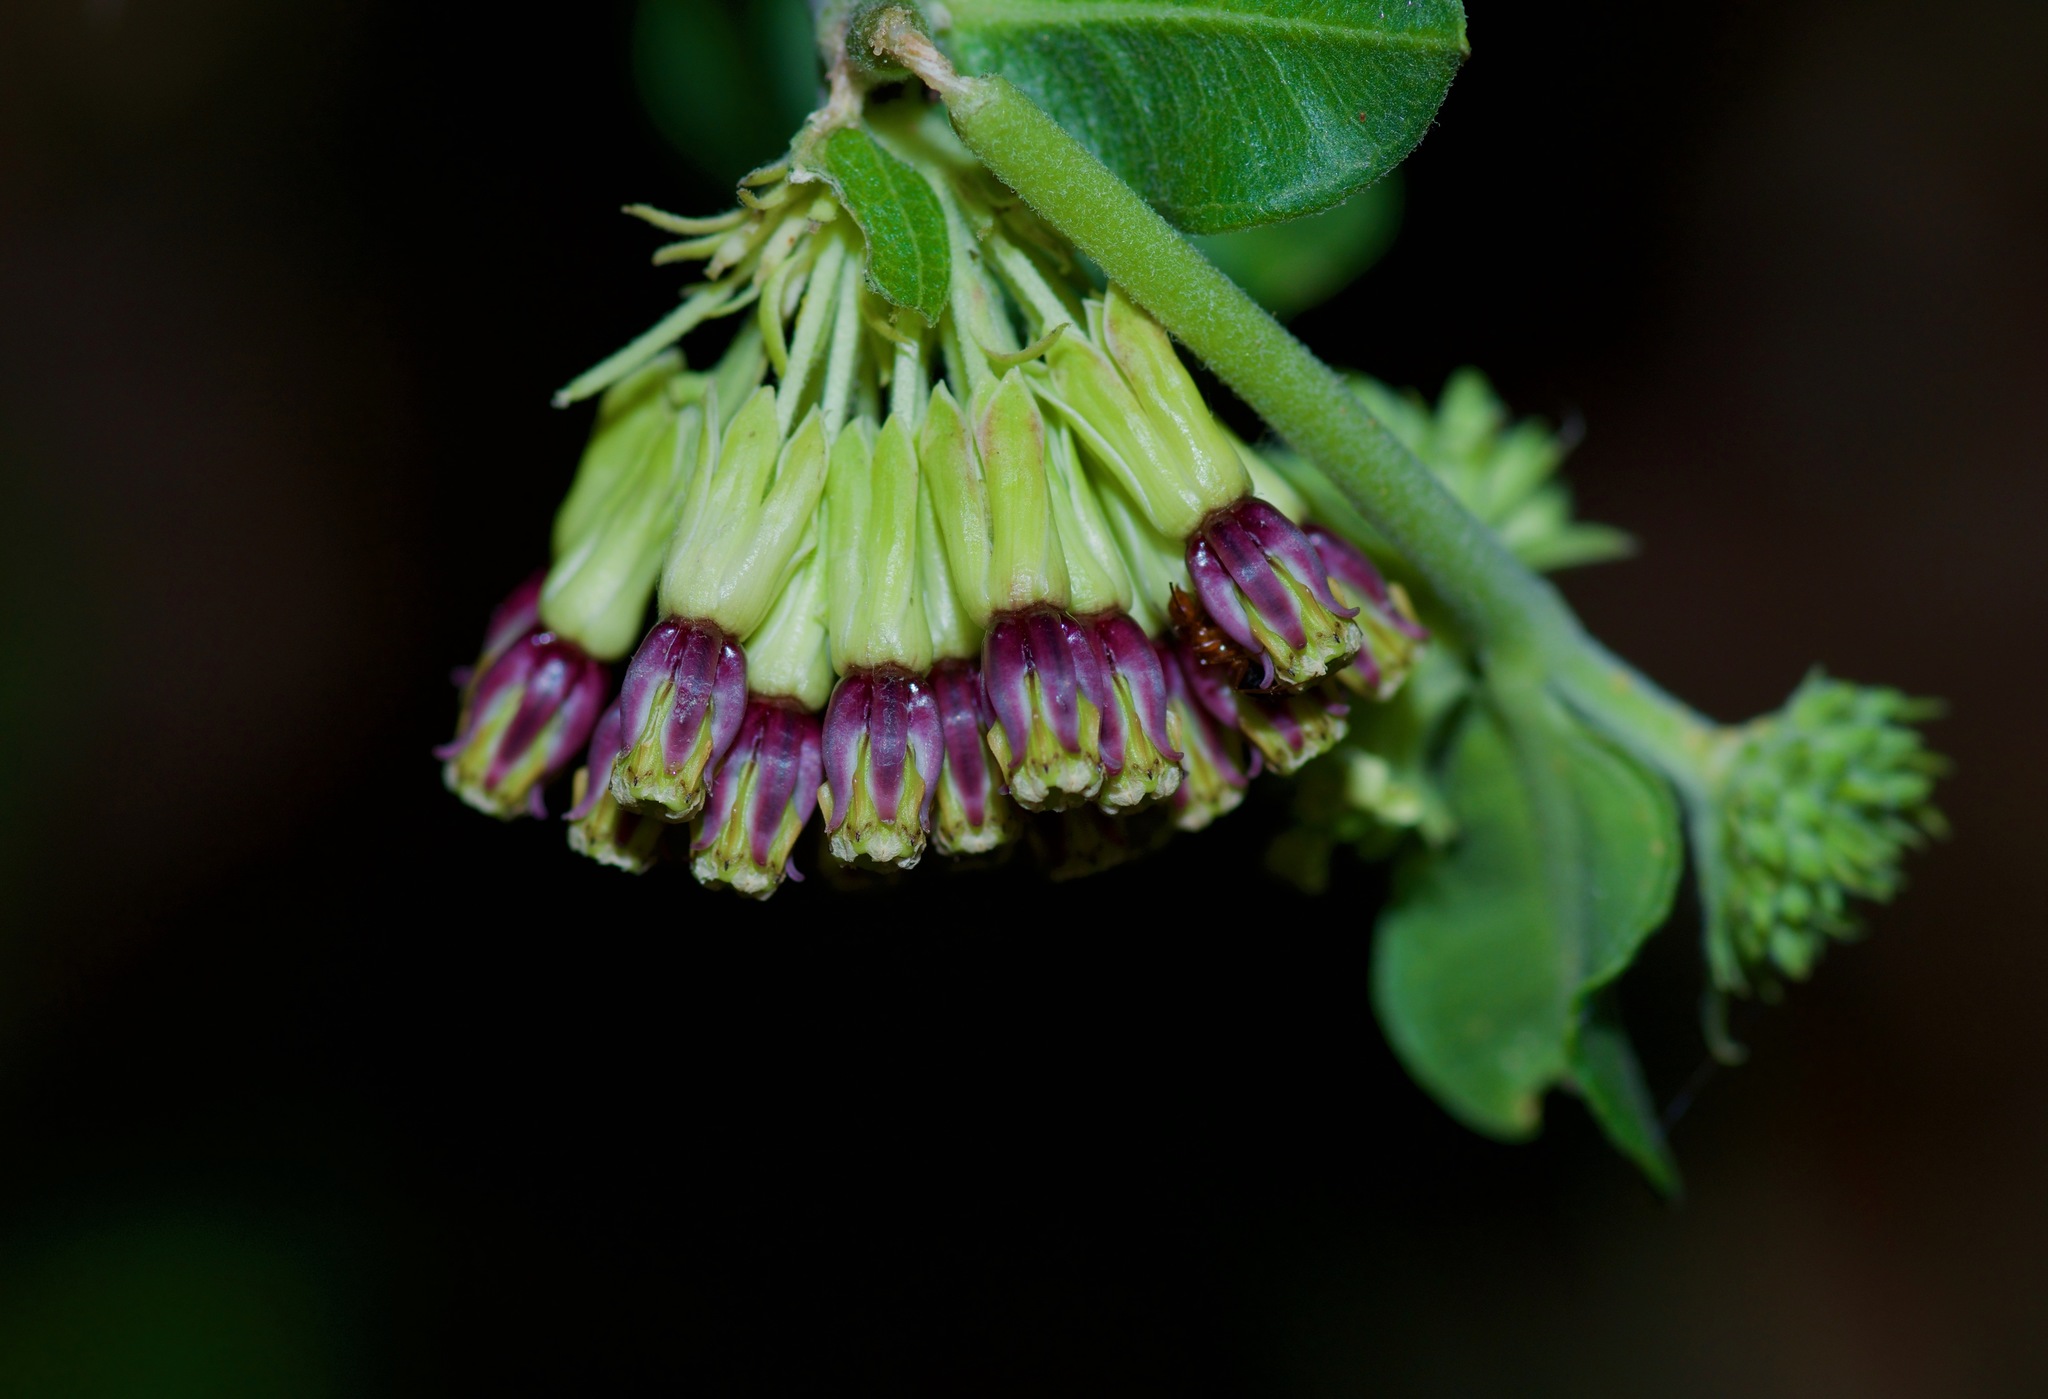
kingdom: Plantae
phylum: Tracheophyta
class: Magnoliopsida
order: Gentianales
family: Apocynaceae
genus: Asclepias
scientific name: Asclepias viridiflora
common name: Green comet milkweed
